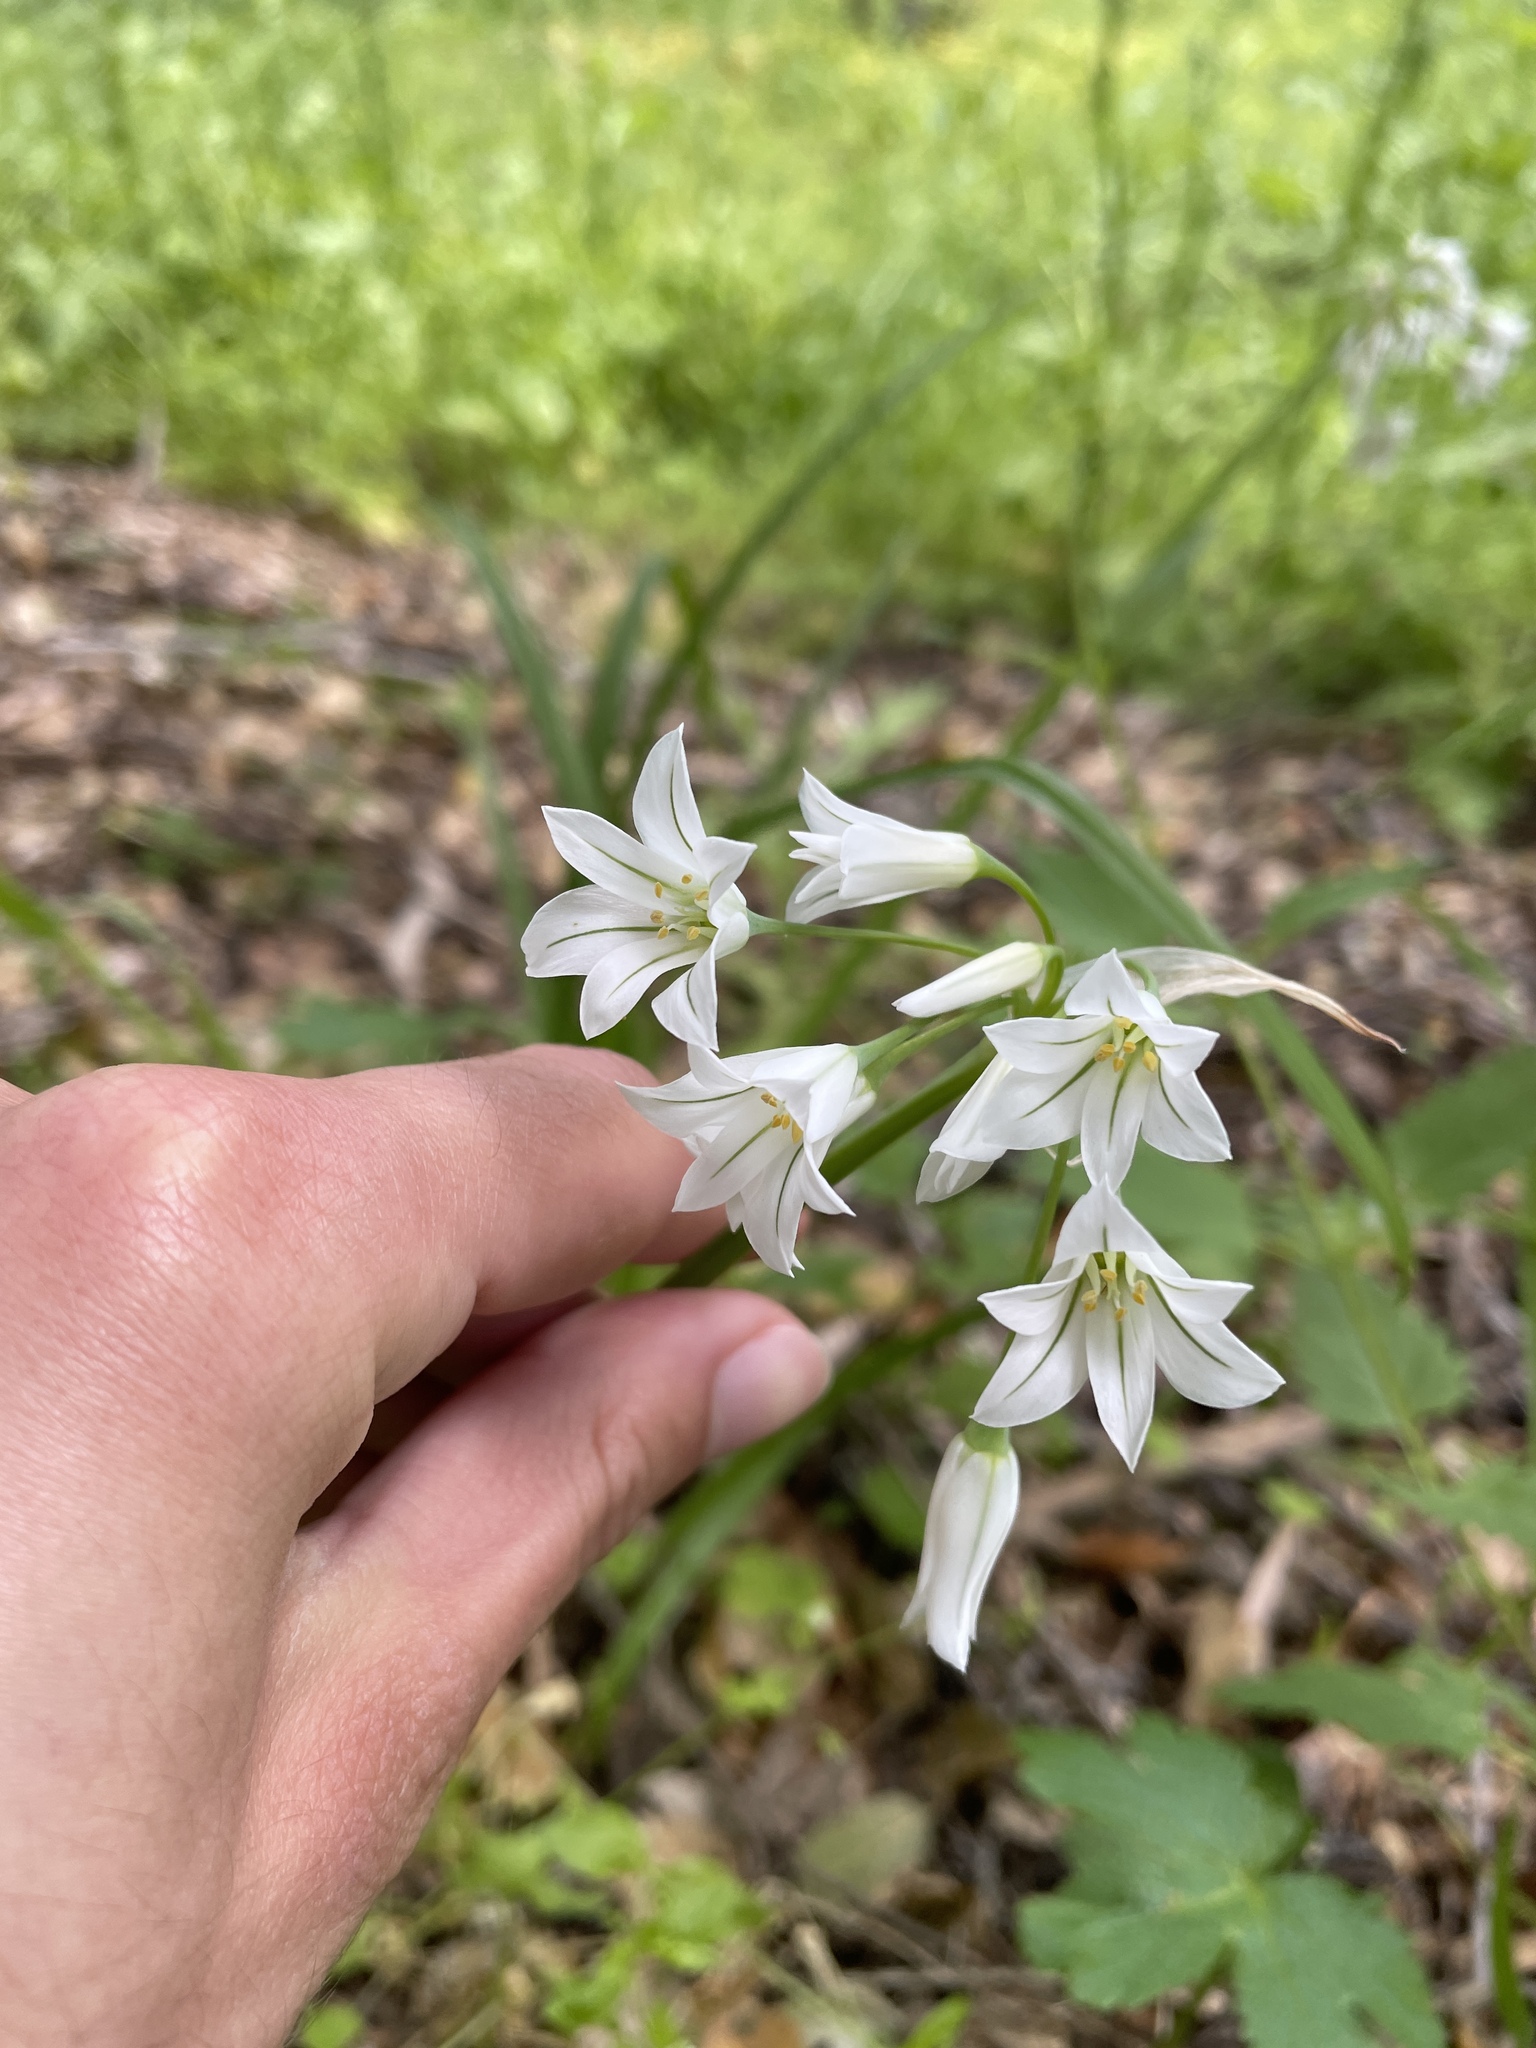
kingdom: Plantae
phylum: Tracheophyta
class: Liliopsida
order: Asparagales
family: Amaryllidaceae
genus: Allium
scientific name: Allium triquetrum
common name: Three-cornered garlic
